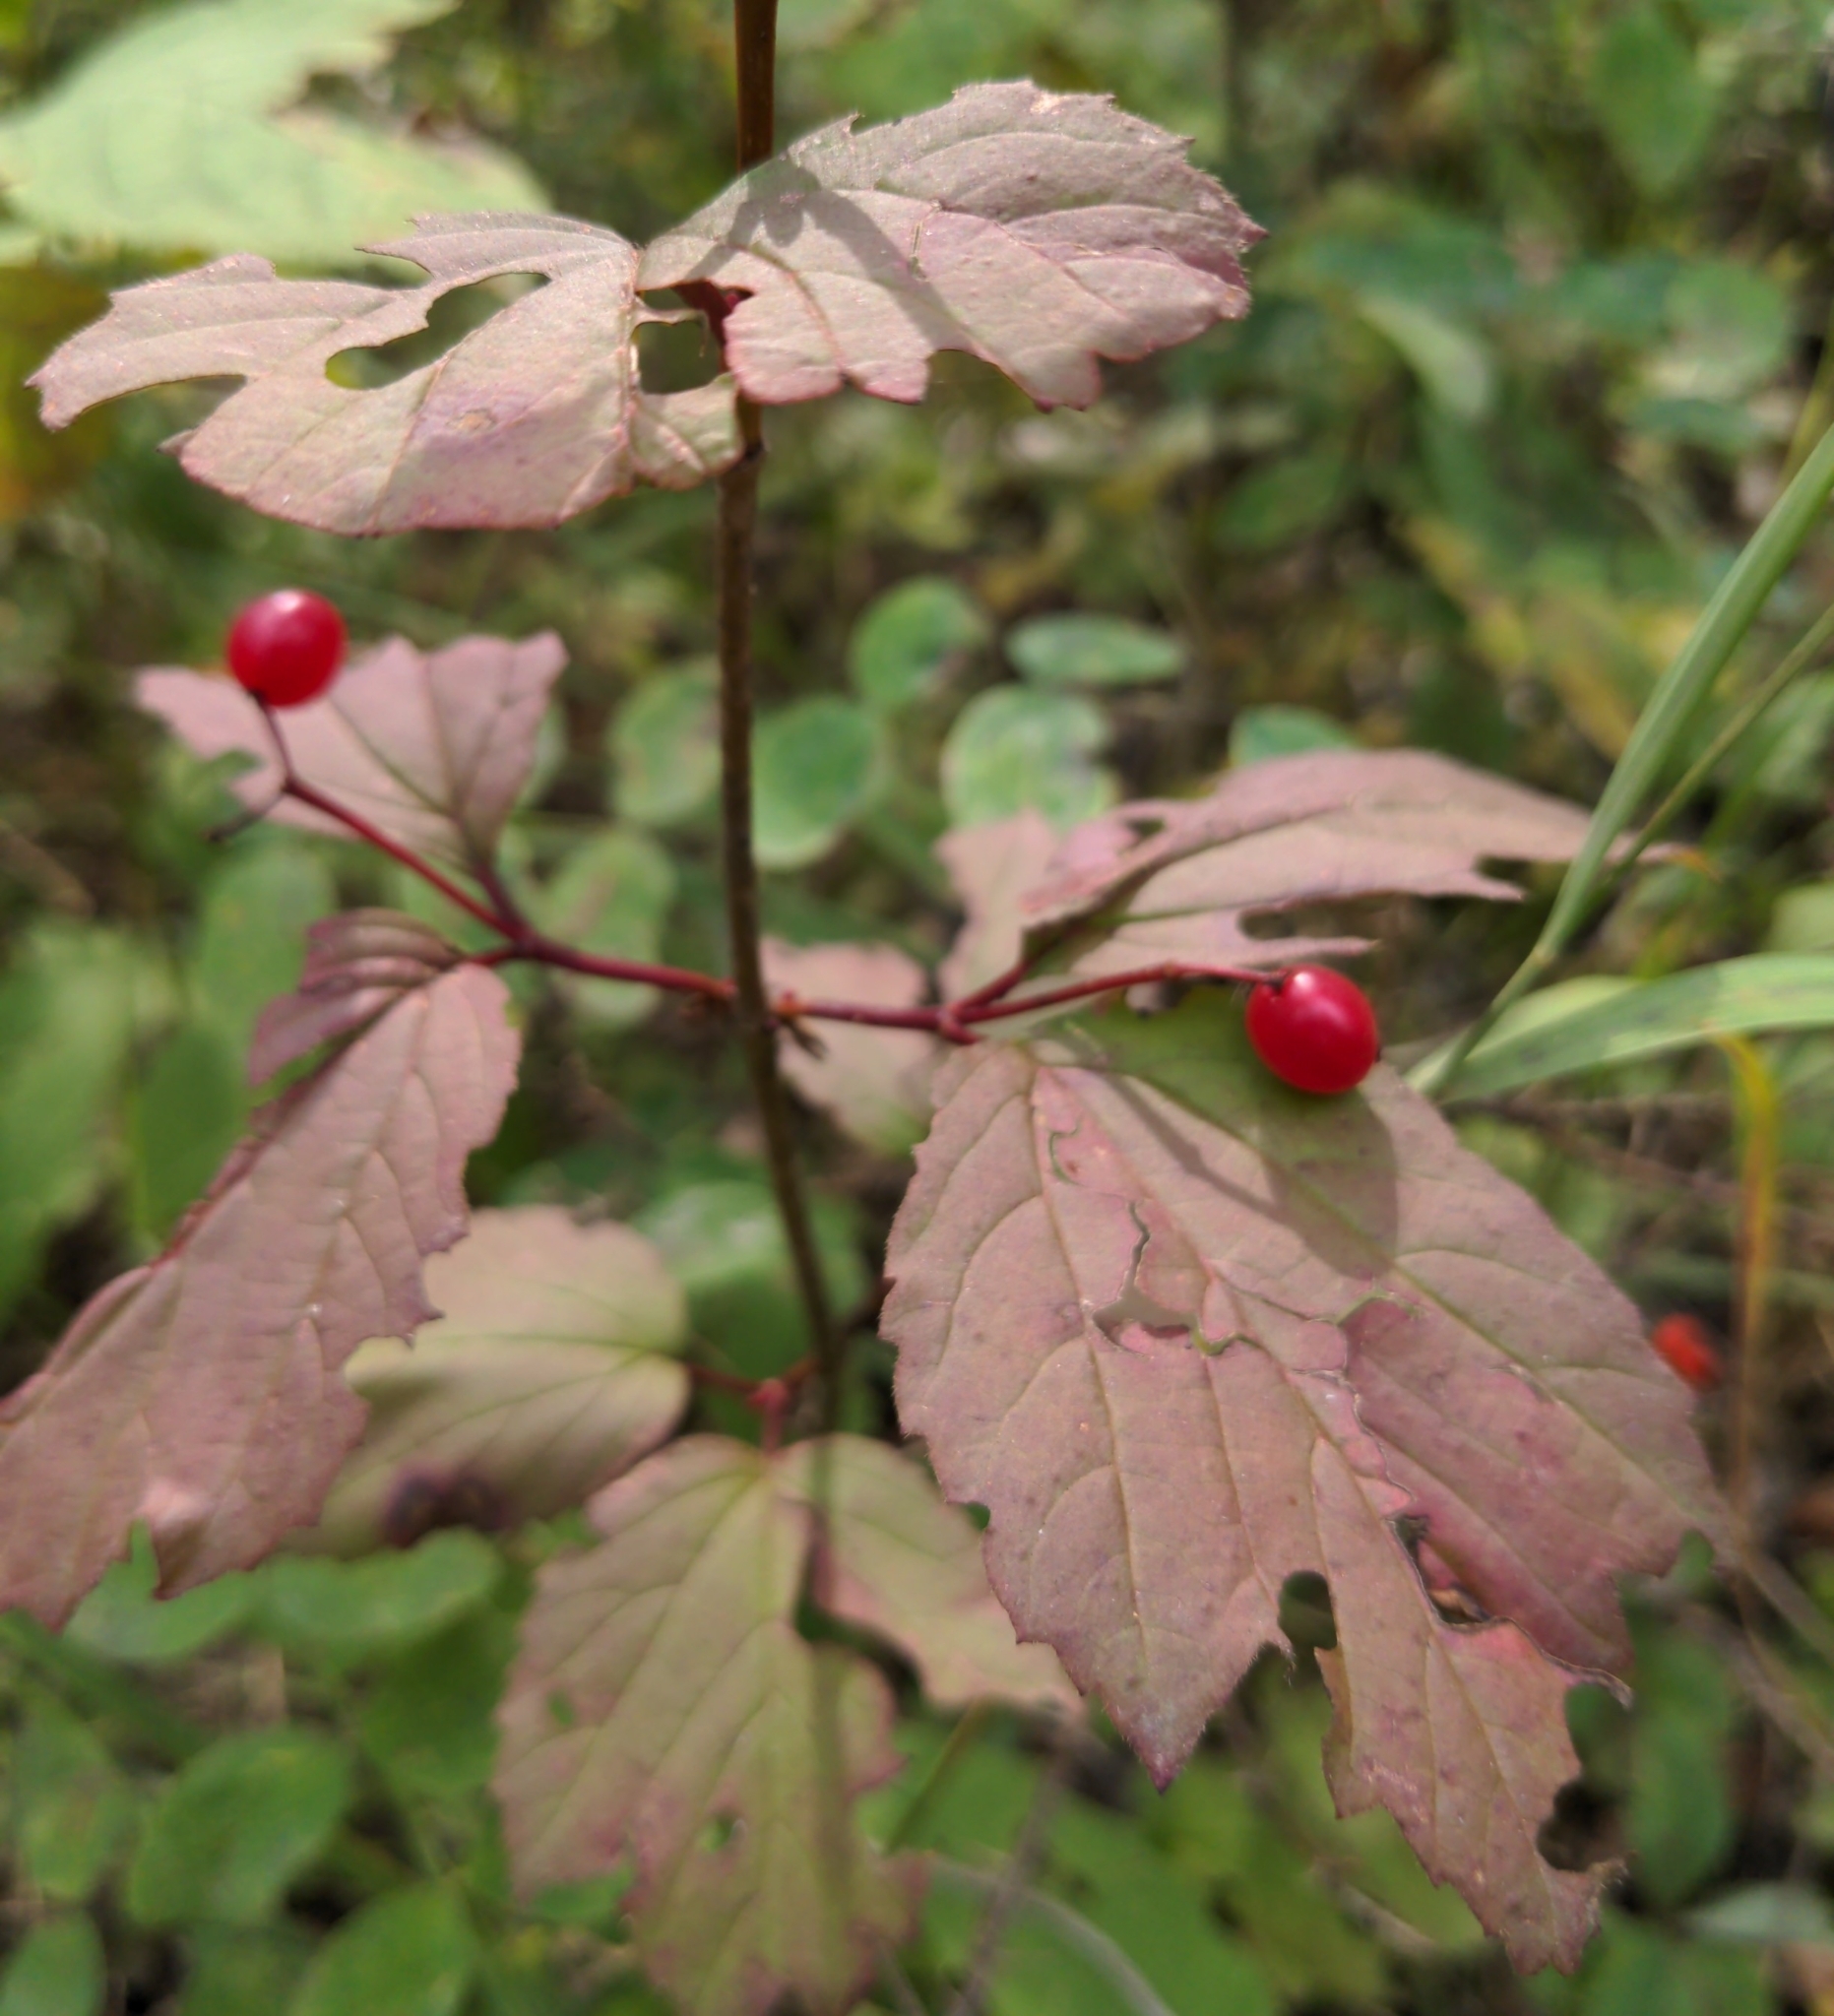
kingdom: Plantae
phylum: Tracheophyta
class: Magnoliopsida
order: Dipsacales
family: Viburnaceae
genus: Viburnum
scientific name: Viburnum edule
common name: Mooseberry
